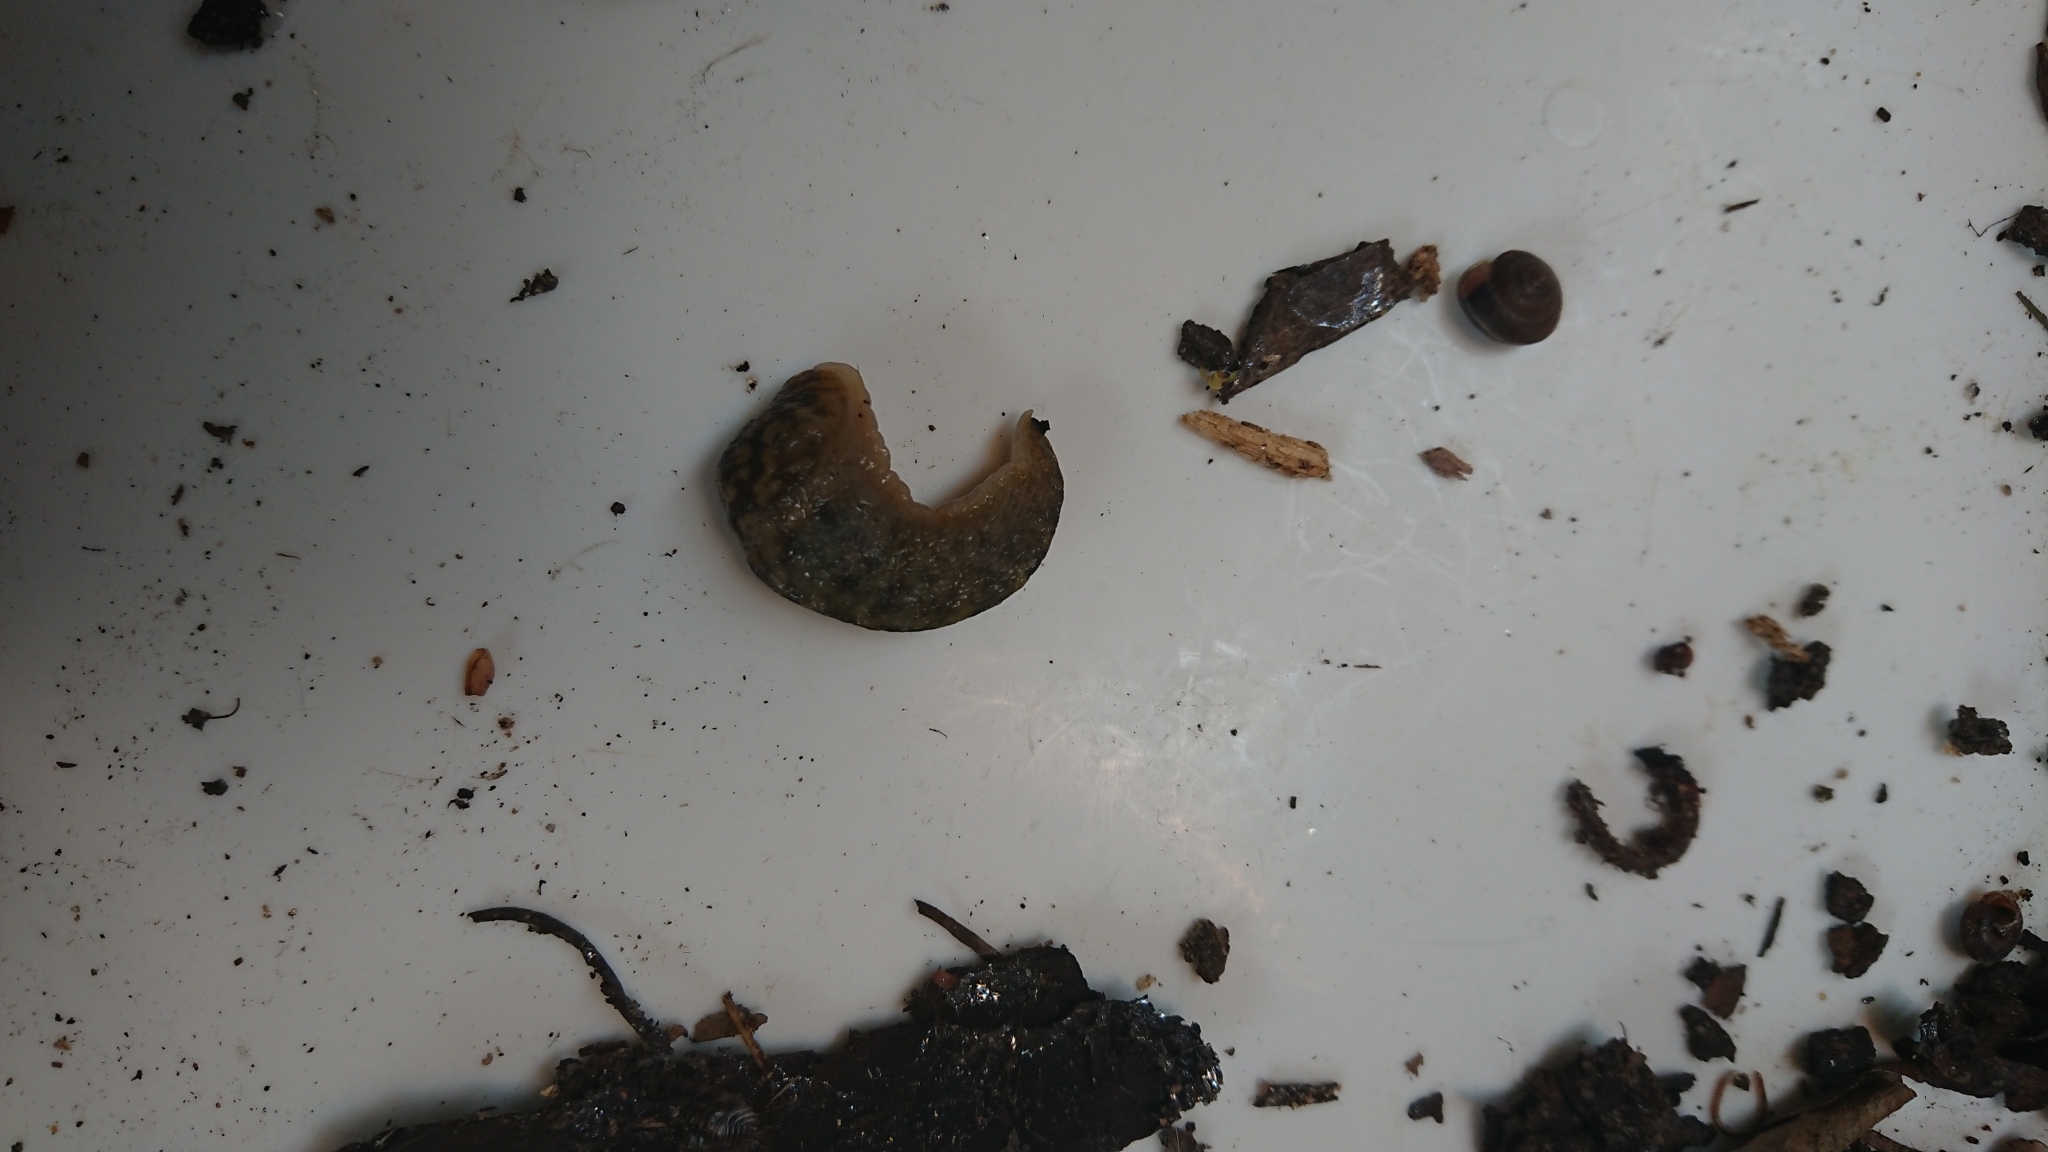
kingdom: Animalia
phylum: Mollusca
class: Gastropoda
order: Stylommatophora
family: Limacidae
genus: Limacus
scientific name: Limacus maculatus
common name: Irish yellow slug
